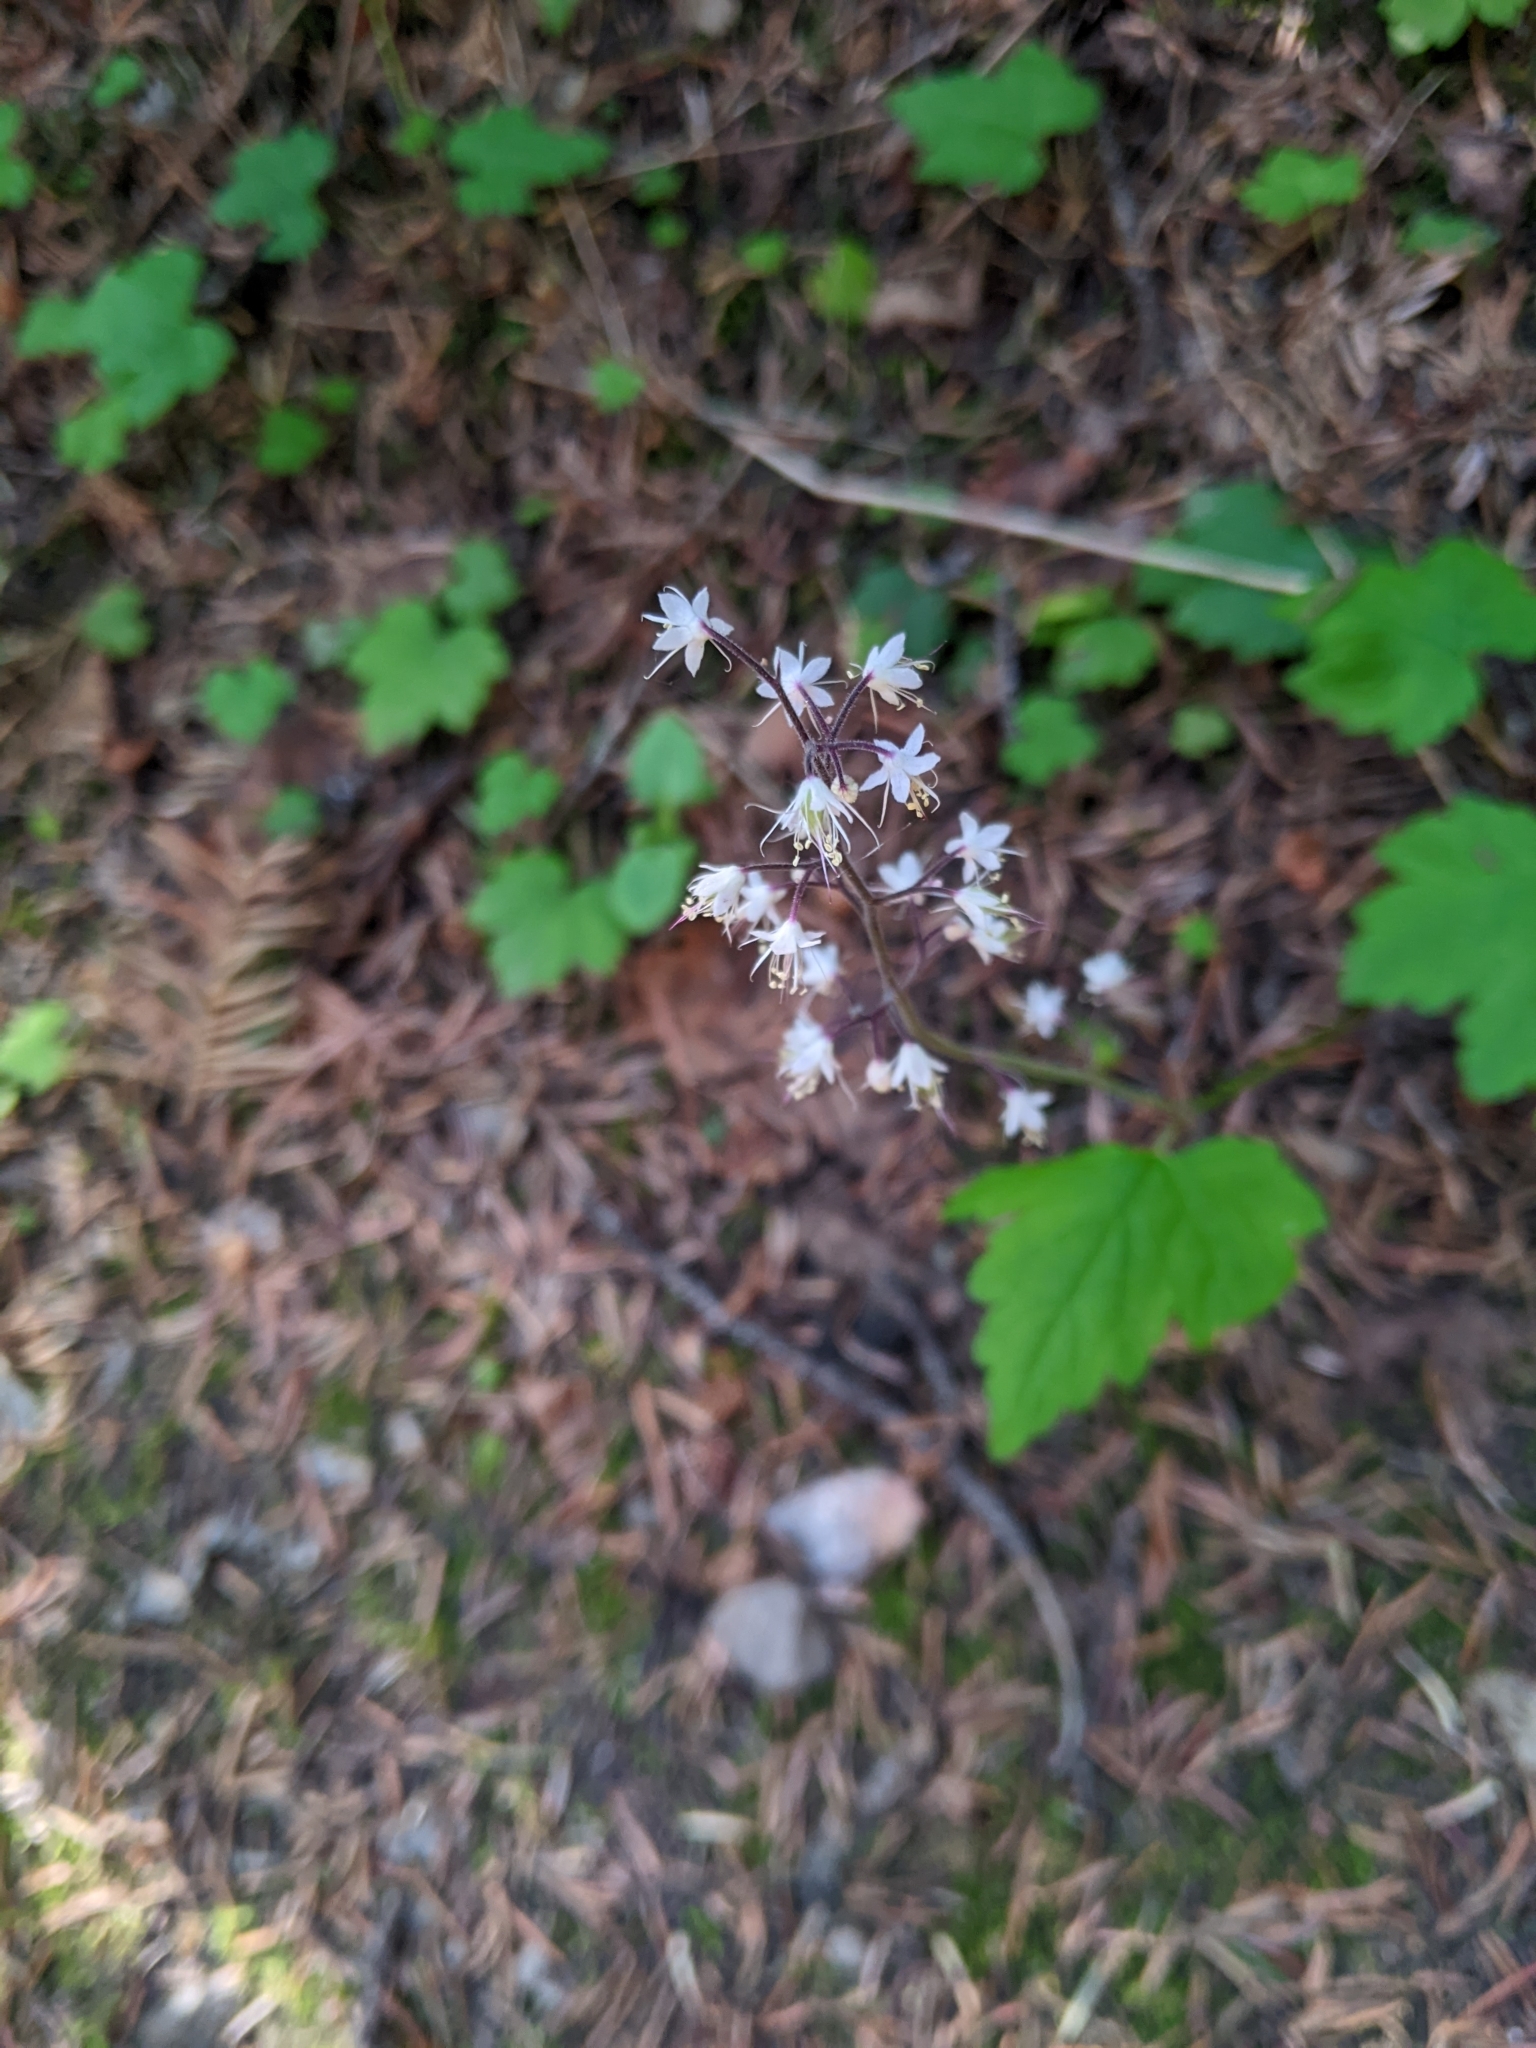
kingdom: Plantae
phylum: Tracheophyta
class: Magnoliopsida
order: Saxifragales
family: Saxifragaceae
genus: Tiarella
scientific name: Tiarella trifoliata
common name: Sugar-scoop
